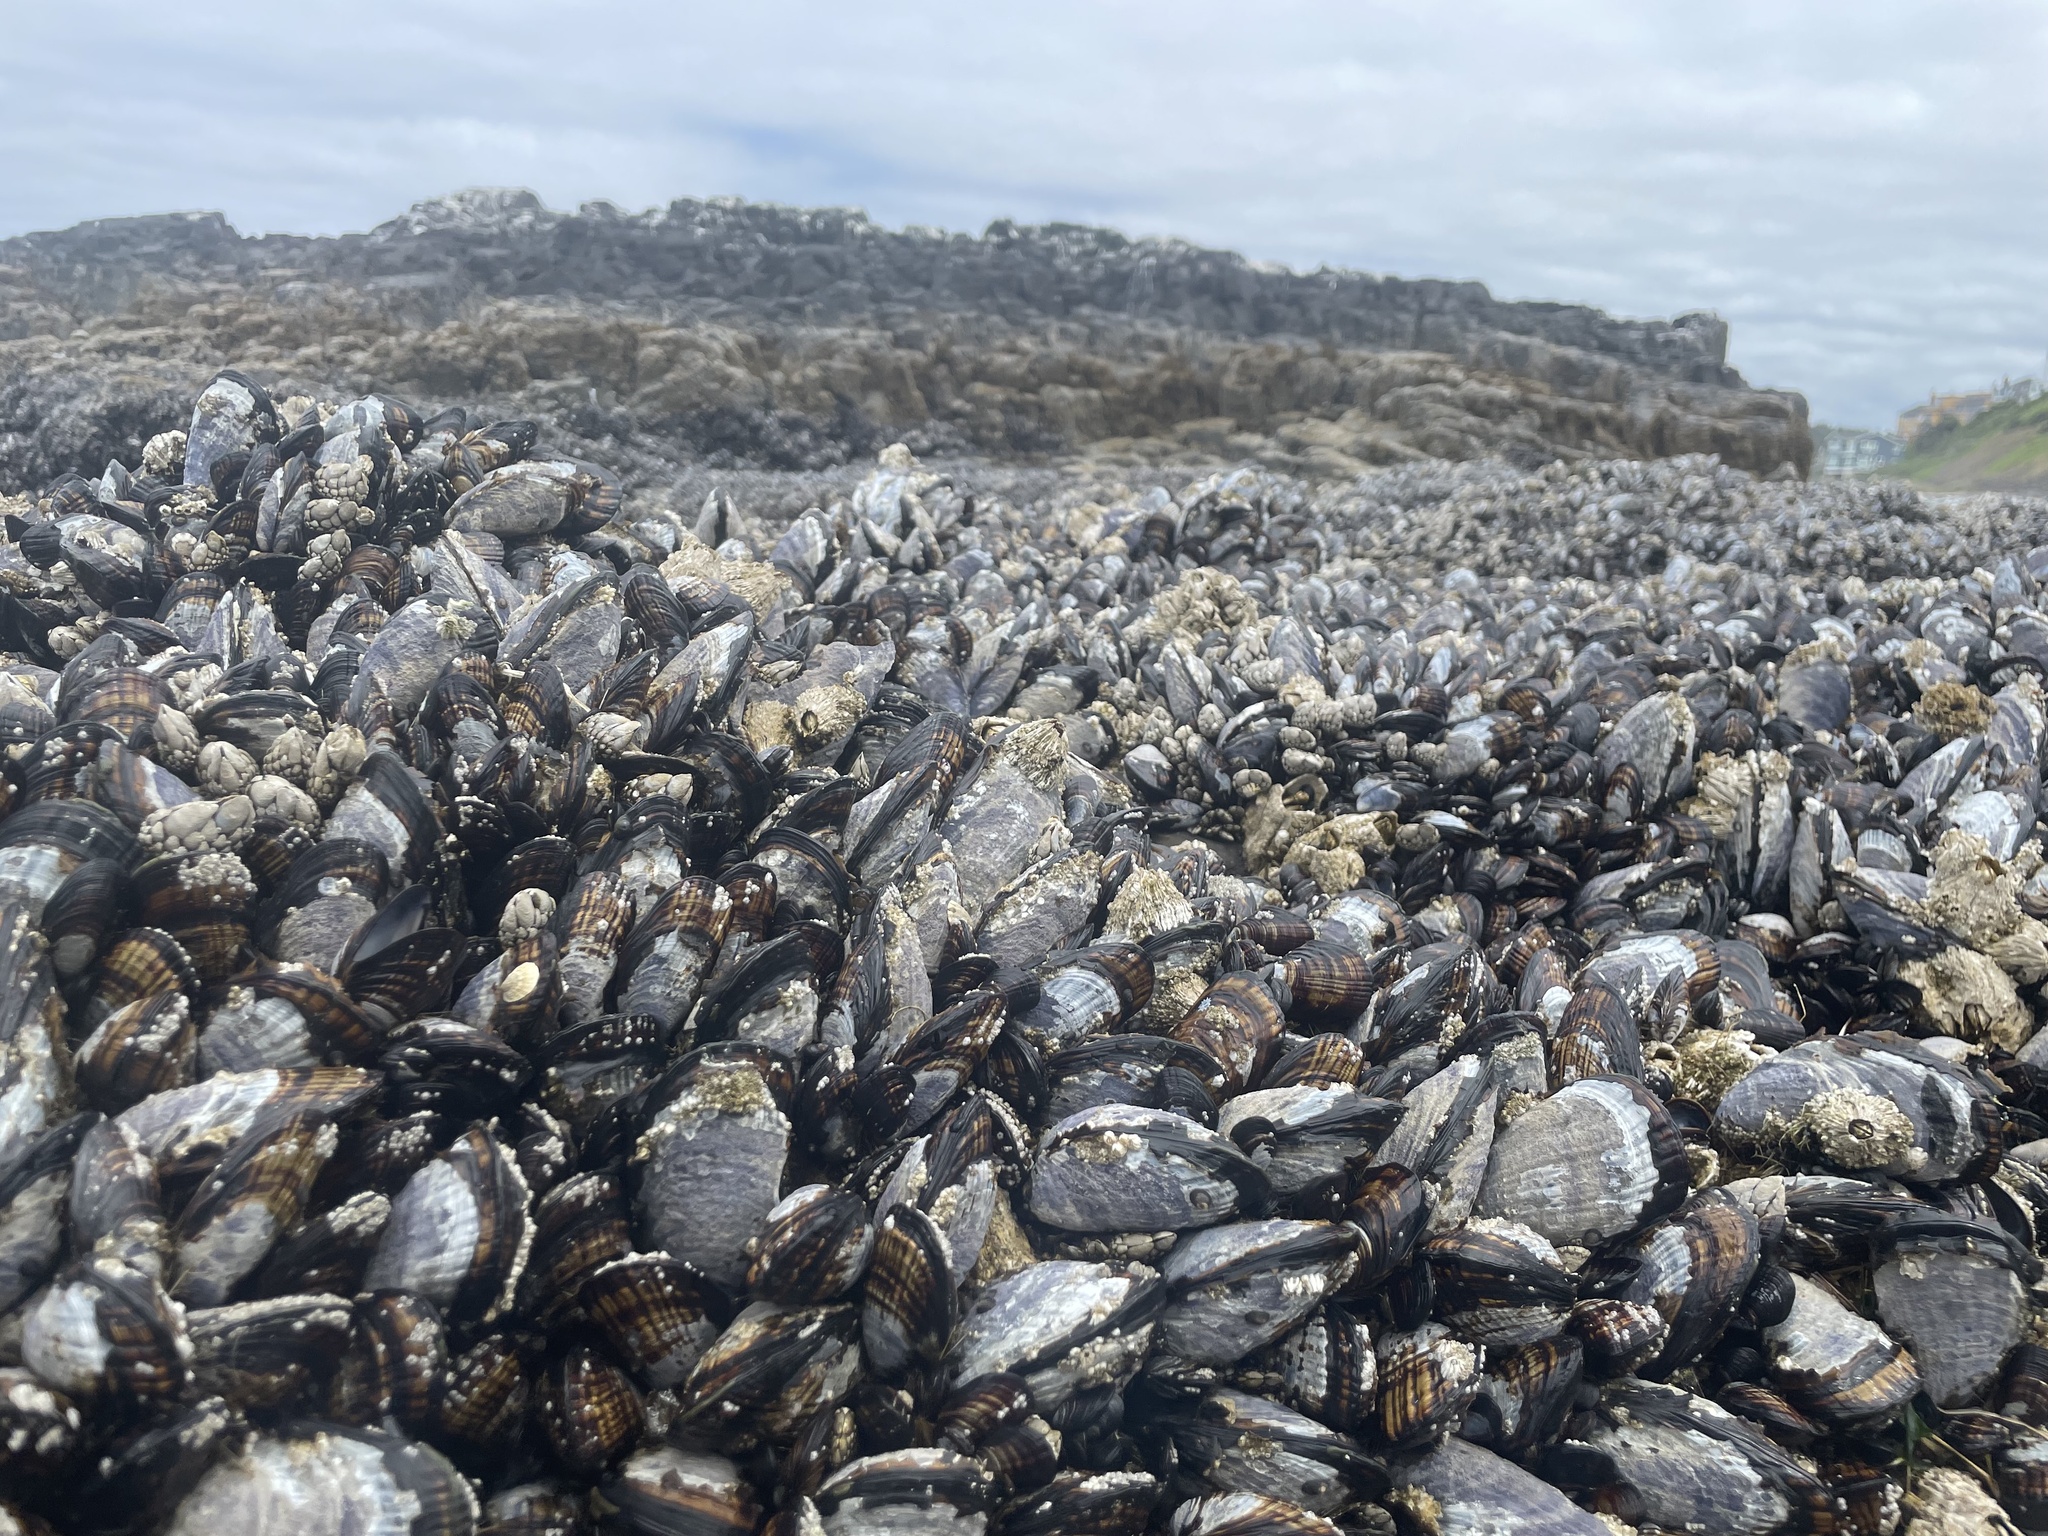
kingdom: Animalia
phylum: Mollusca
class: Bivalvia
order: Mytilida
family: Mytilidae
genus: Mytilus
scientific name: Mytilus californianus
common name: California mussel
